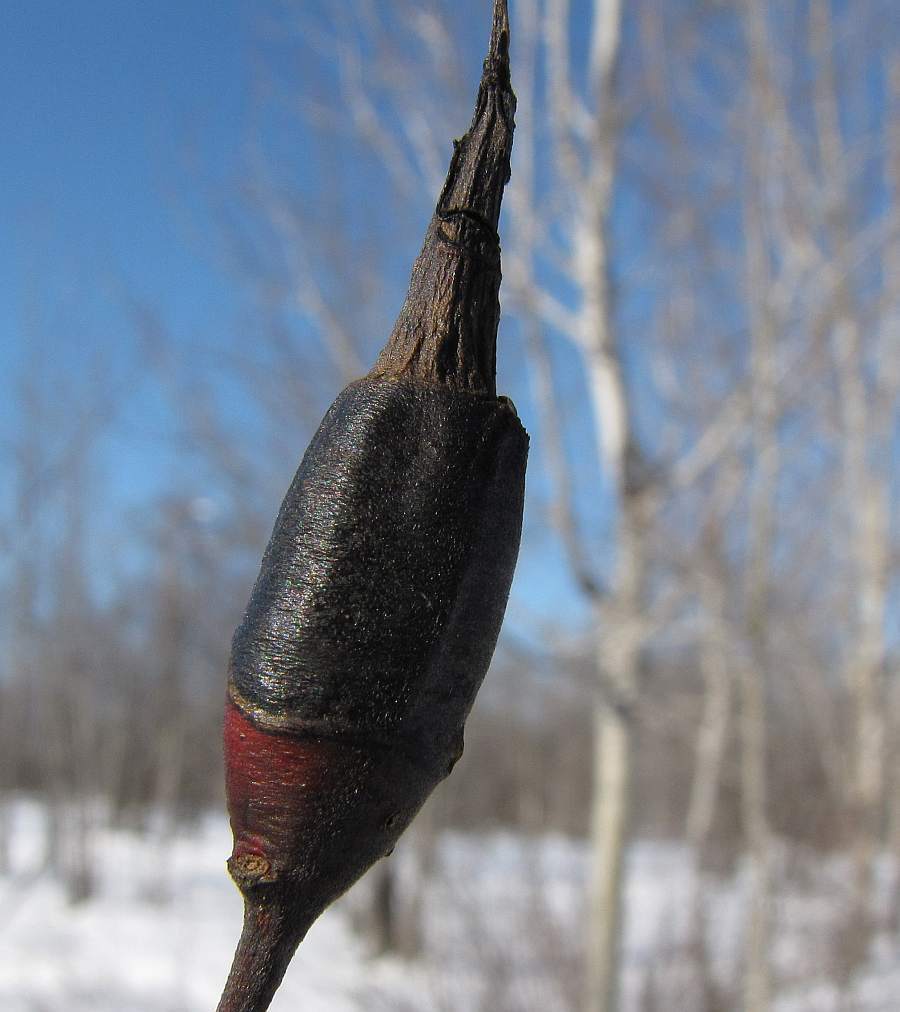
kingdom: Animalia
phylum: Arthropoda
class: Insecta
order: Diptera
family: Cecidomyiidae
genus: Thecodiplosis
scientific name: Thecodiplosis pinirigidae
